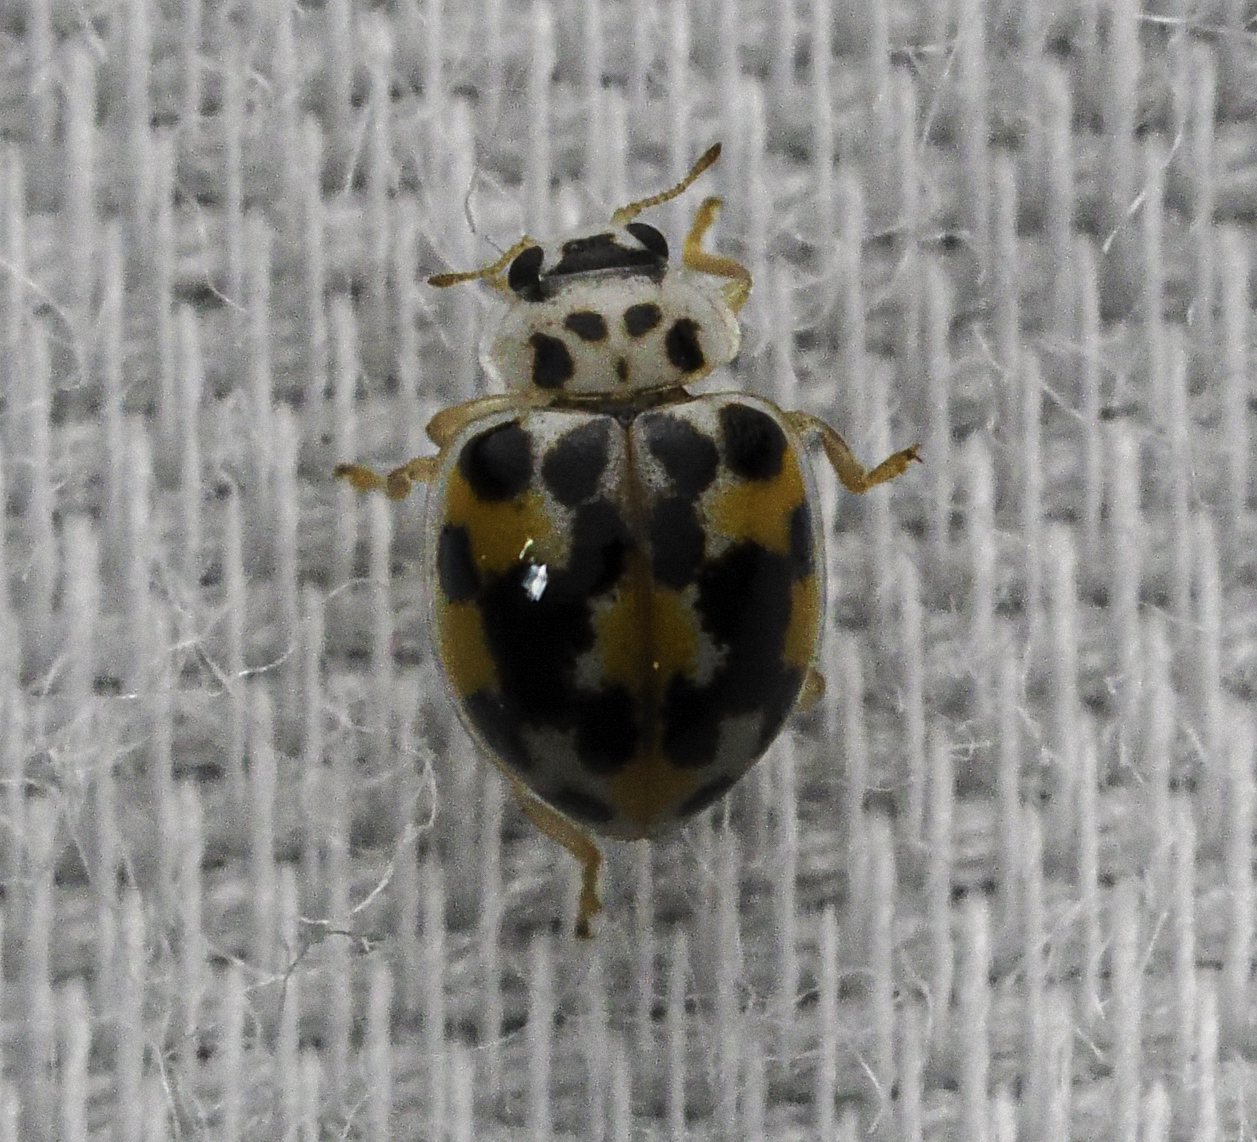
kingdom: Animalia
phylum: Arthropoda
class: Insecta
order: Coleoptera
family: Coccinellidae
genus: Psyllobora
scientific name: Psyllobora vigintimaculata
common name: Ladybird beetle
